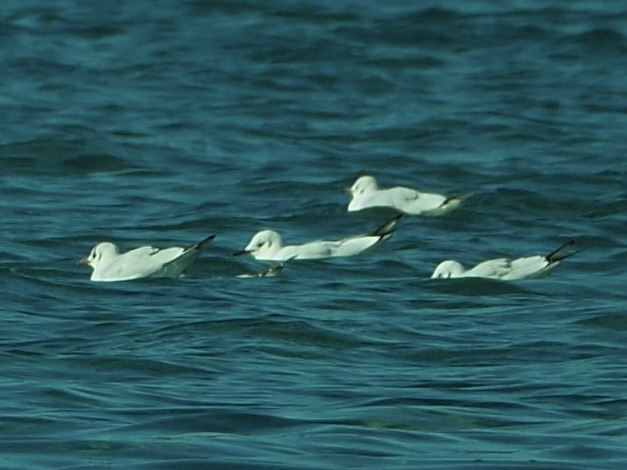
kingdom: Animalia
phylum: Chordata
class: Aves
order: Charadriiformes
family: Laridae
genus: Chroicocephalus
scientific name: Chroicocephalus ridibundus
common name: Black-headed gull
